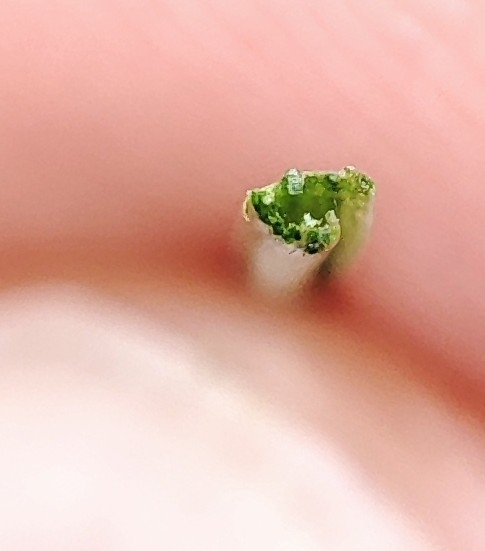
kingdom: Plantae
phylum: Tracheophyta
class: Liliopsida
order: Poales
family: Poaceae
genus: Festuca
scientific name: Festuca rubra
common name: Red fescue
